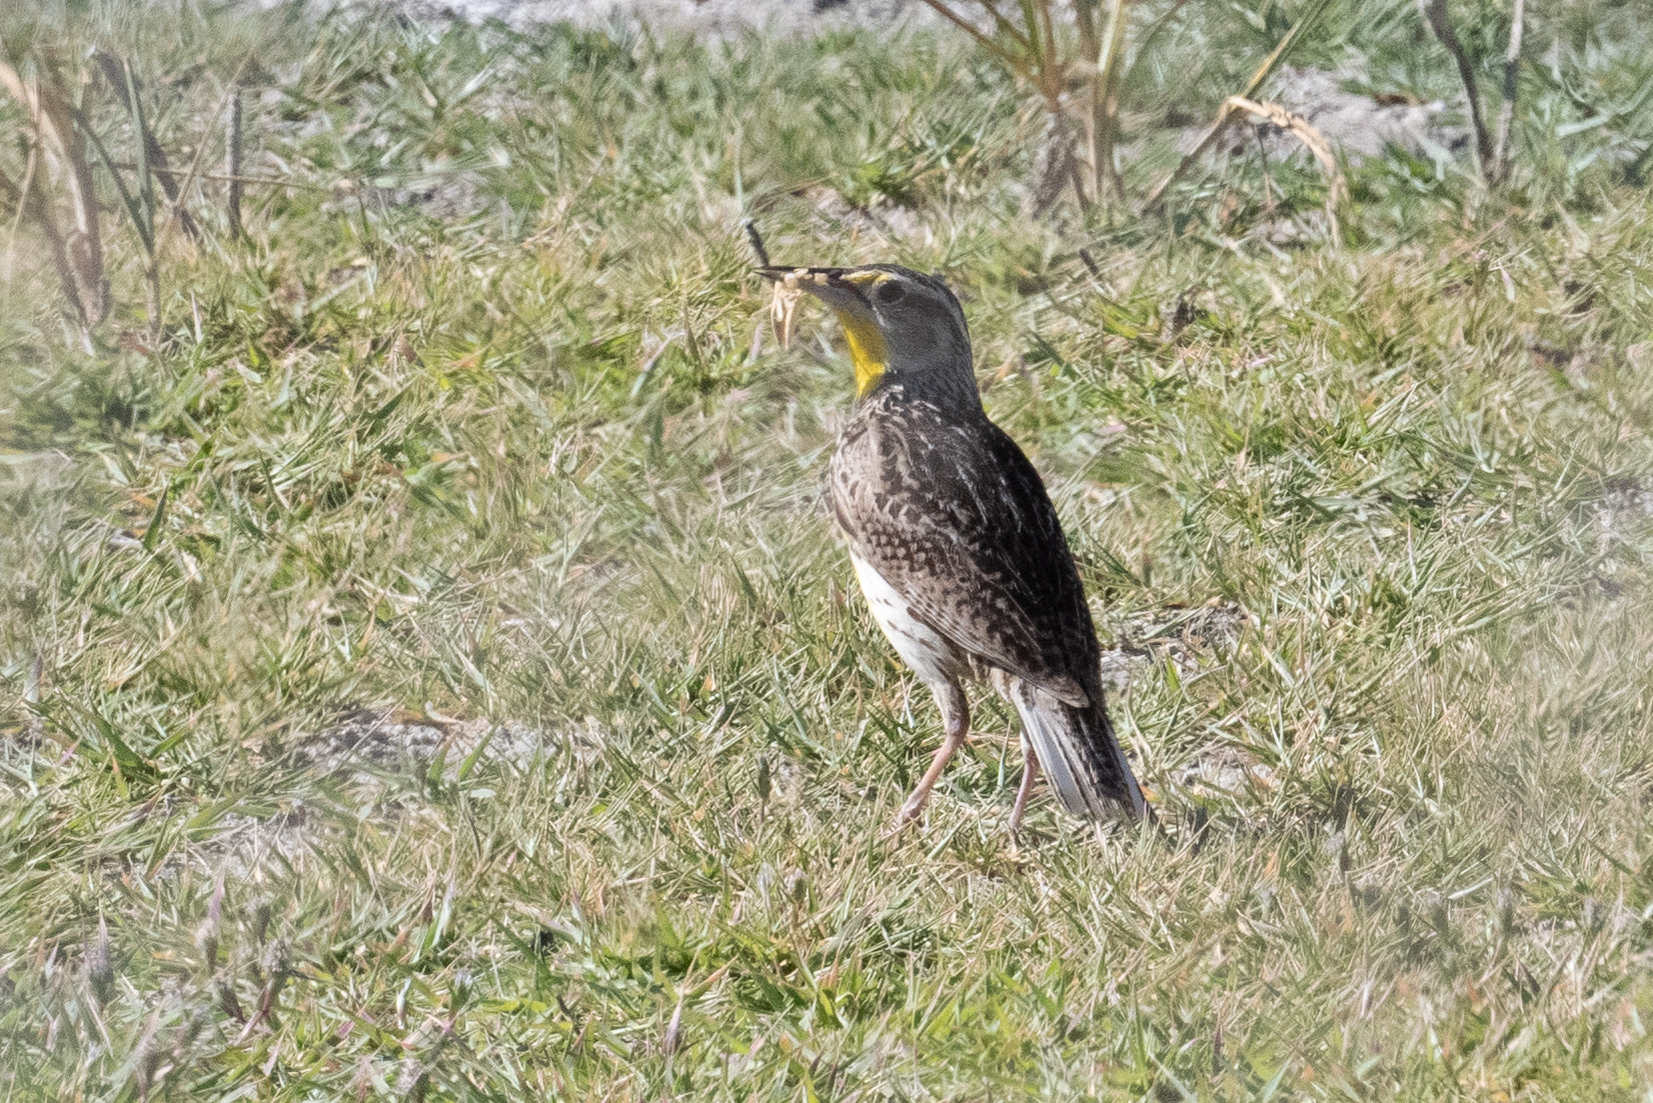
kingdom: Animalia
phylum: Chordata
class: Aves
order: Passeriformes
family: Icteridae
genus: Sturnella
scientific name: Sturnella neglecta
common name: Western meadowlark
